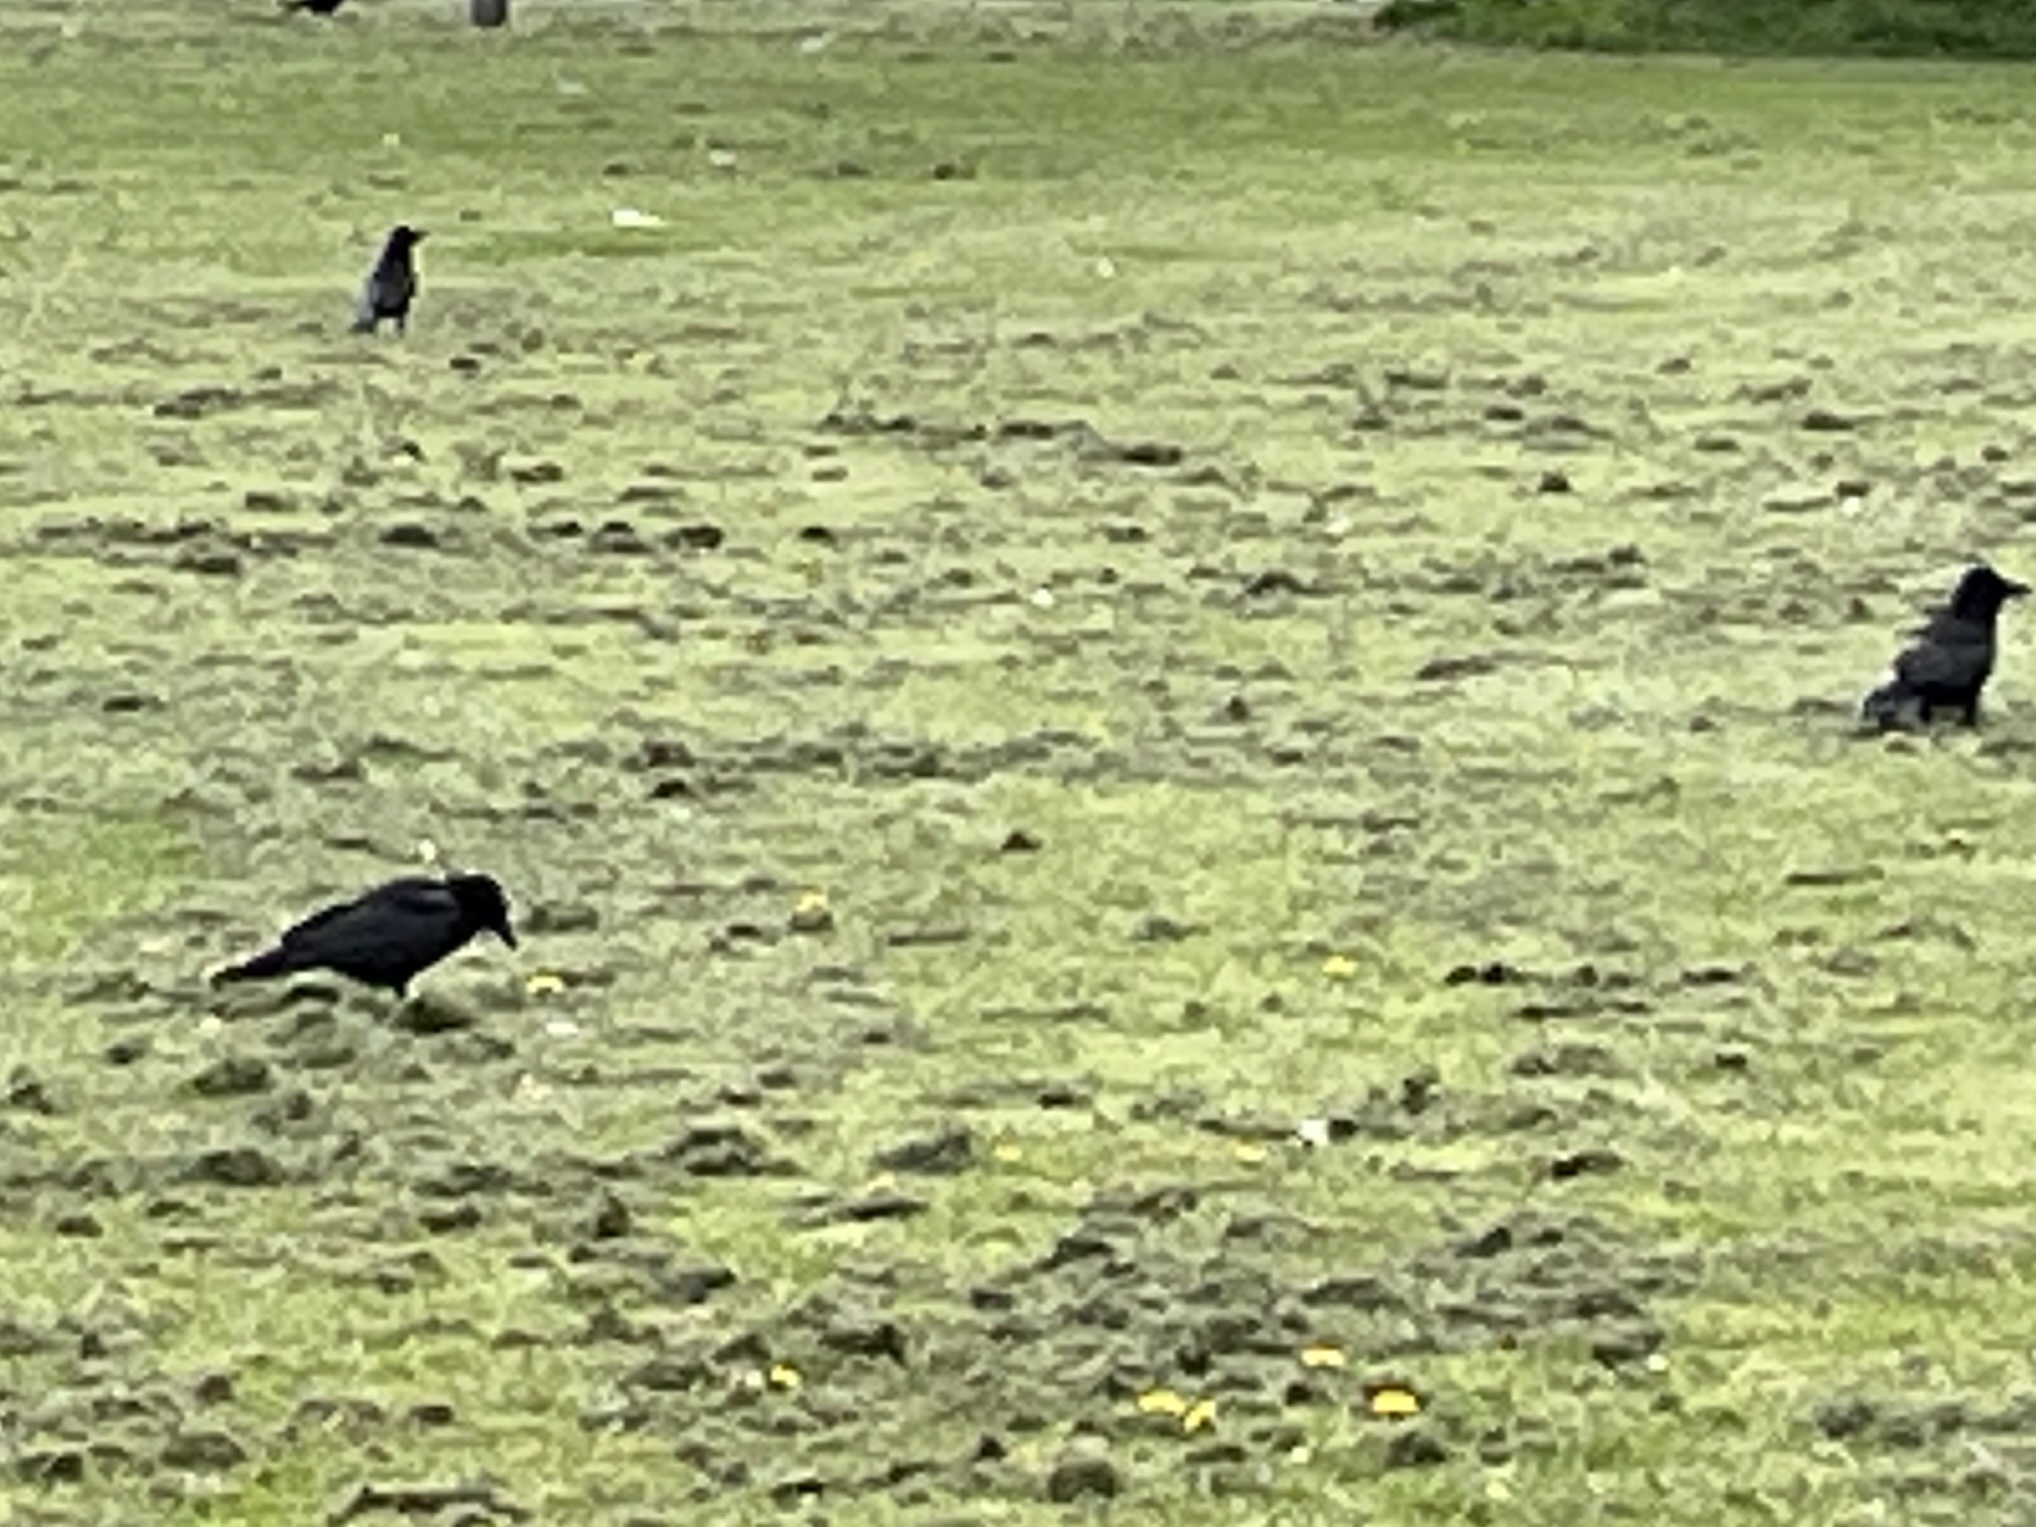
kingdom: Animalia
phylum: Chordata
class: Aves
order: Passeriformes
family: Corvidae
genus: Corvus
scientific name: Corvus corone
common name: Carrion crow
